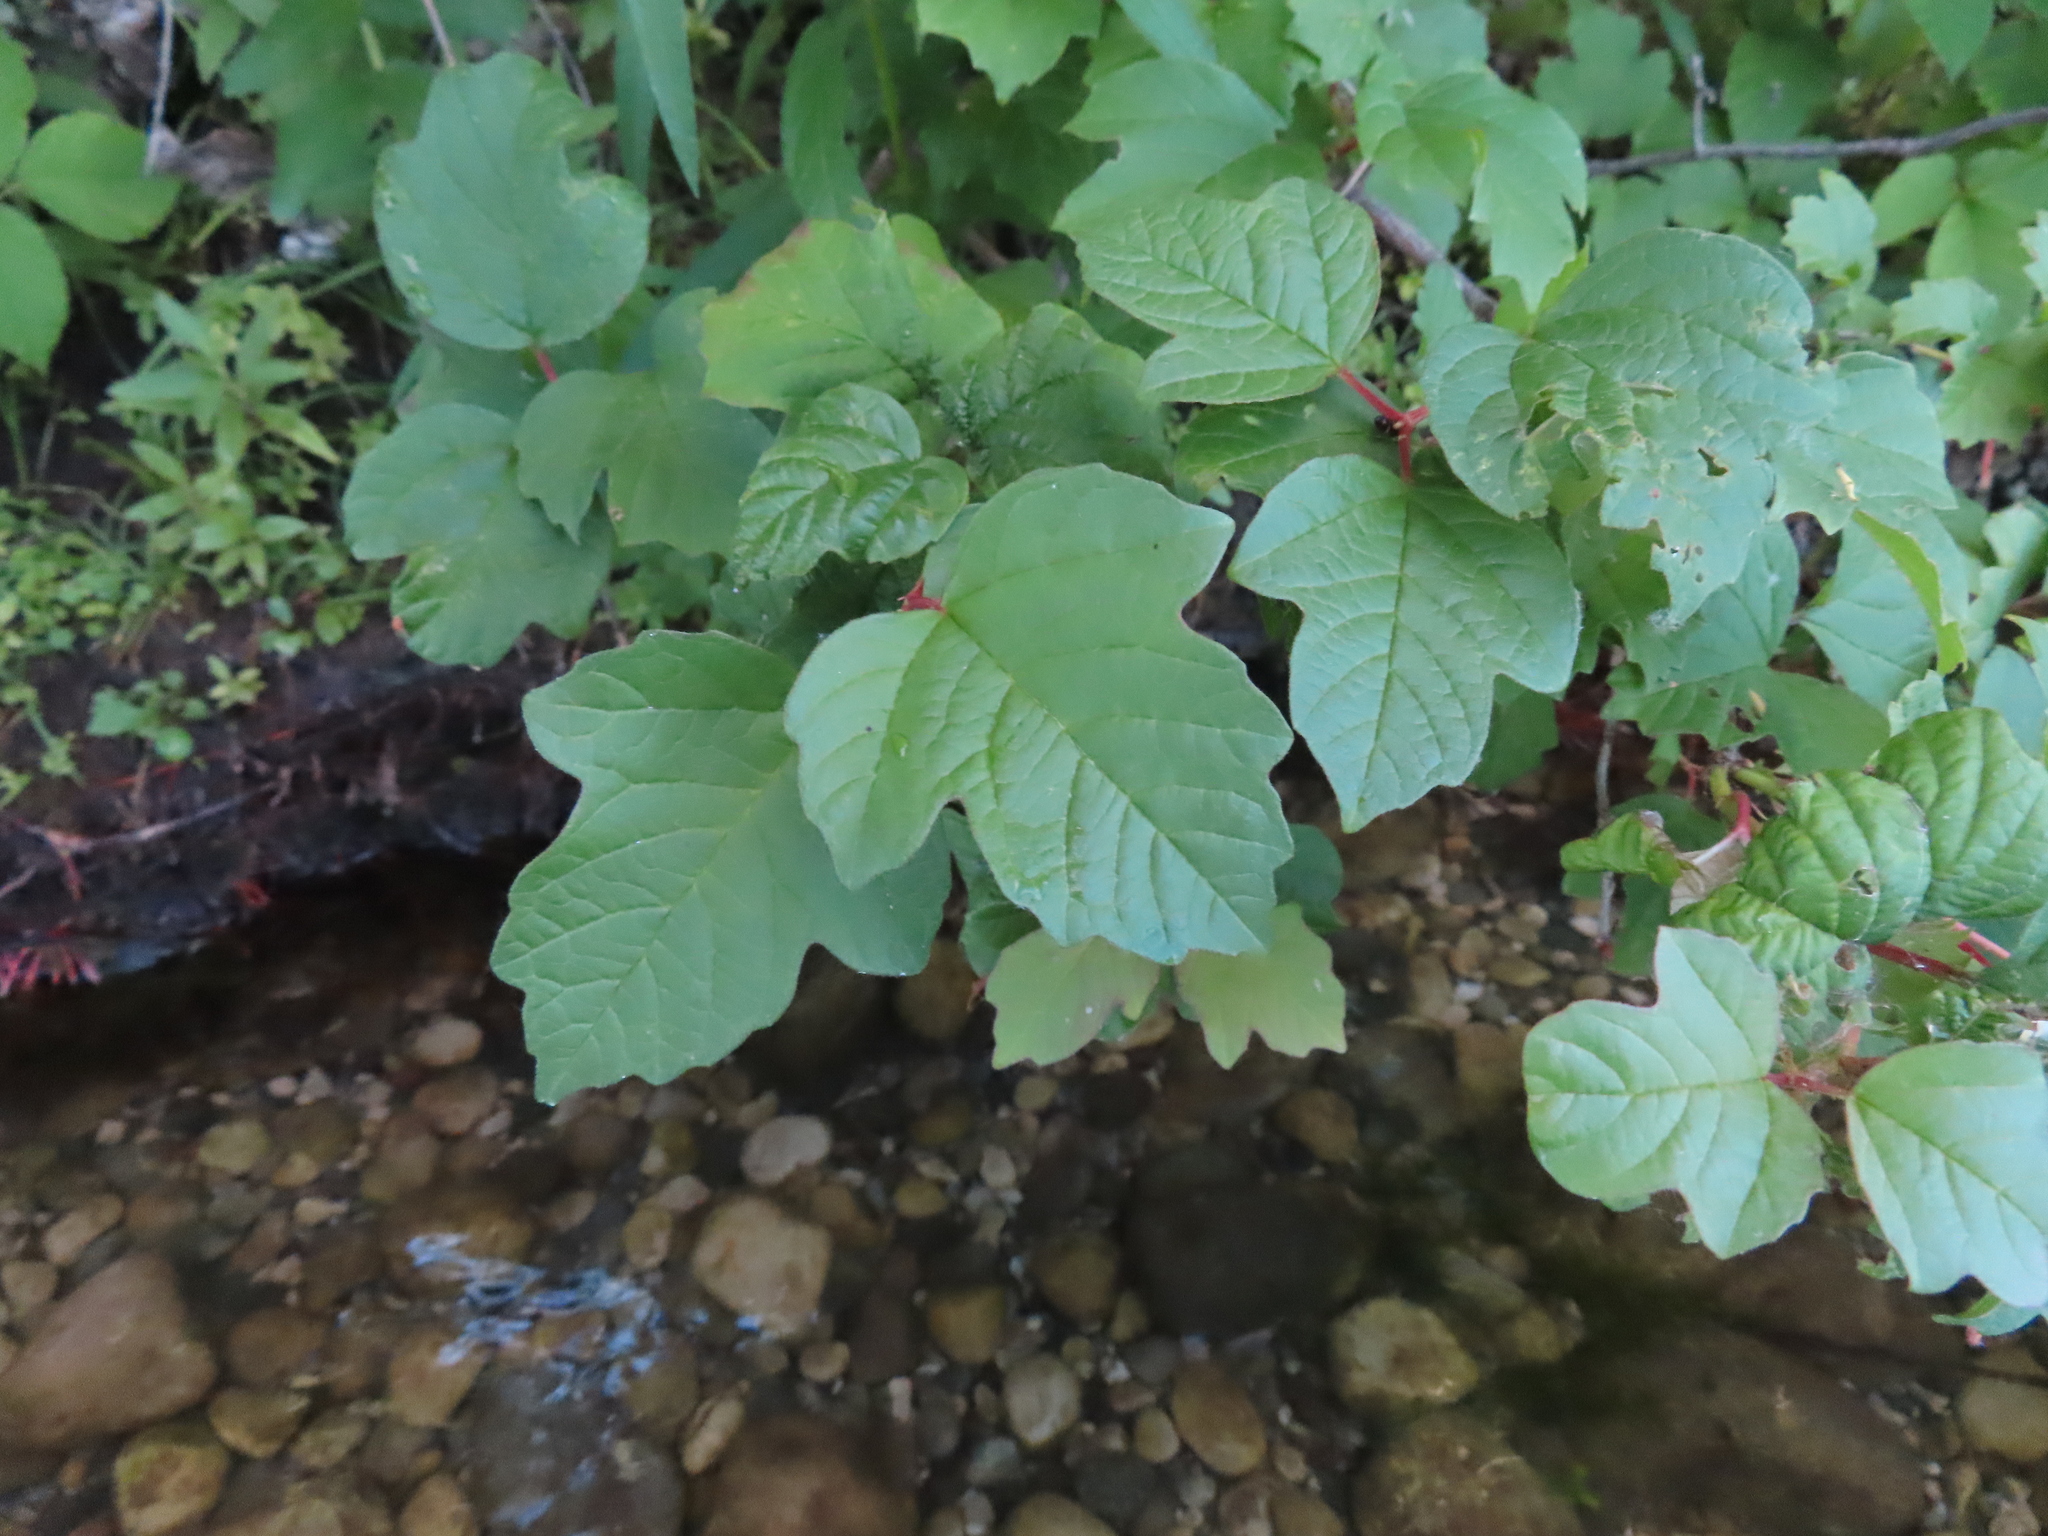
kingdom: Plantae
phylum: Tracheophyta
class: Magnoliopsida
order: Dipsacales
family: Viburnaceae
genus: Viburnum
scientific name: Viburnum opulus
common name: Guelder-rose
